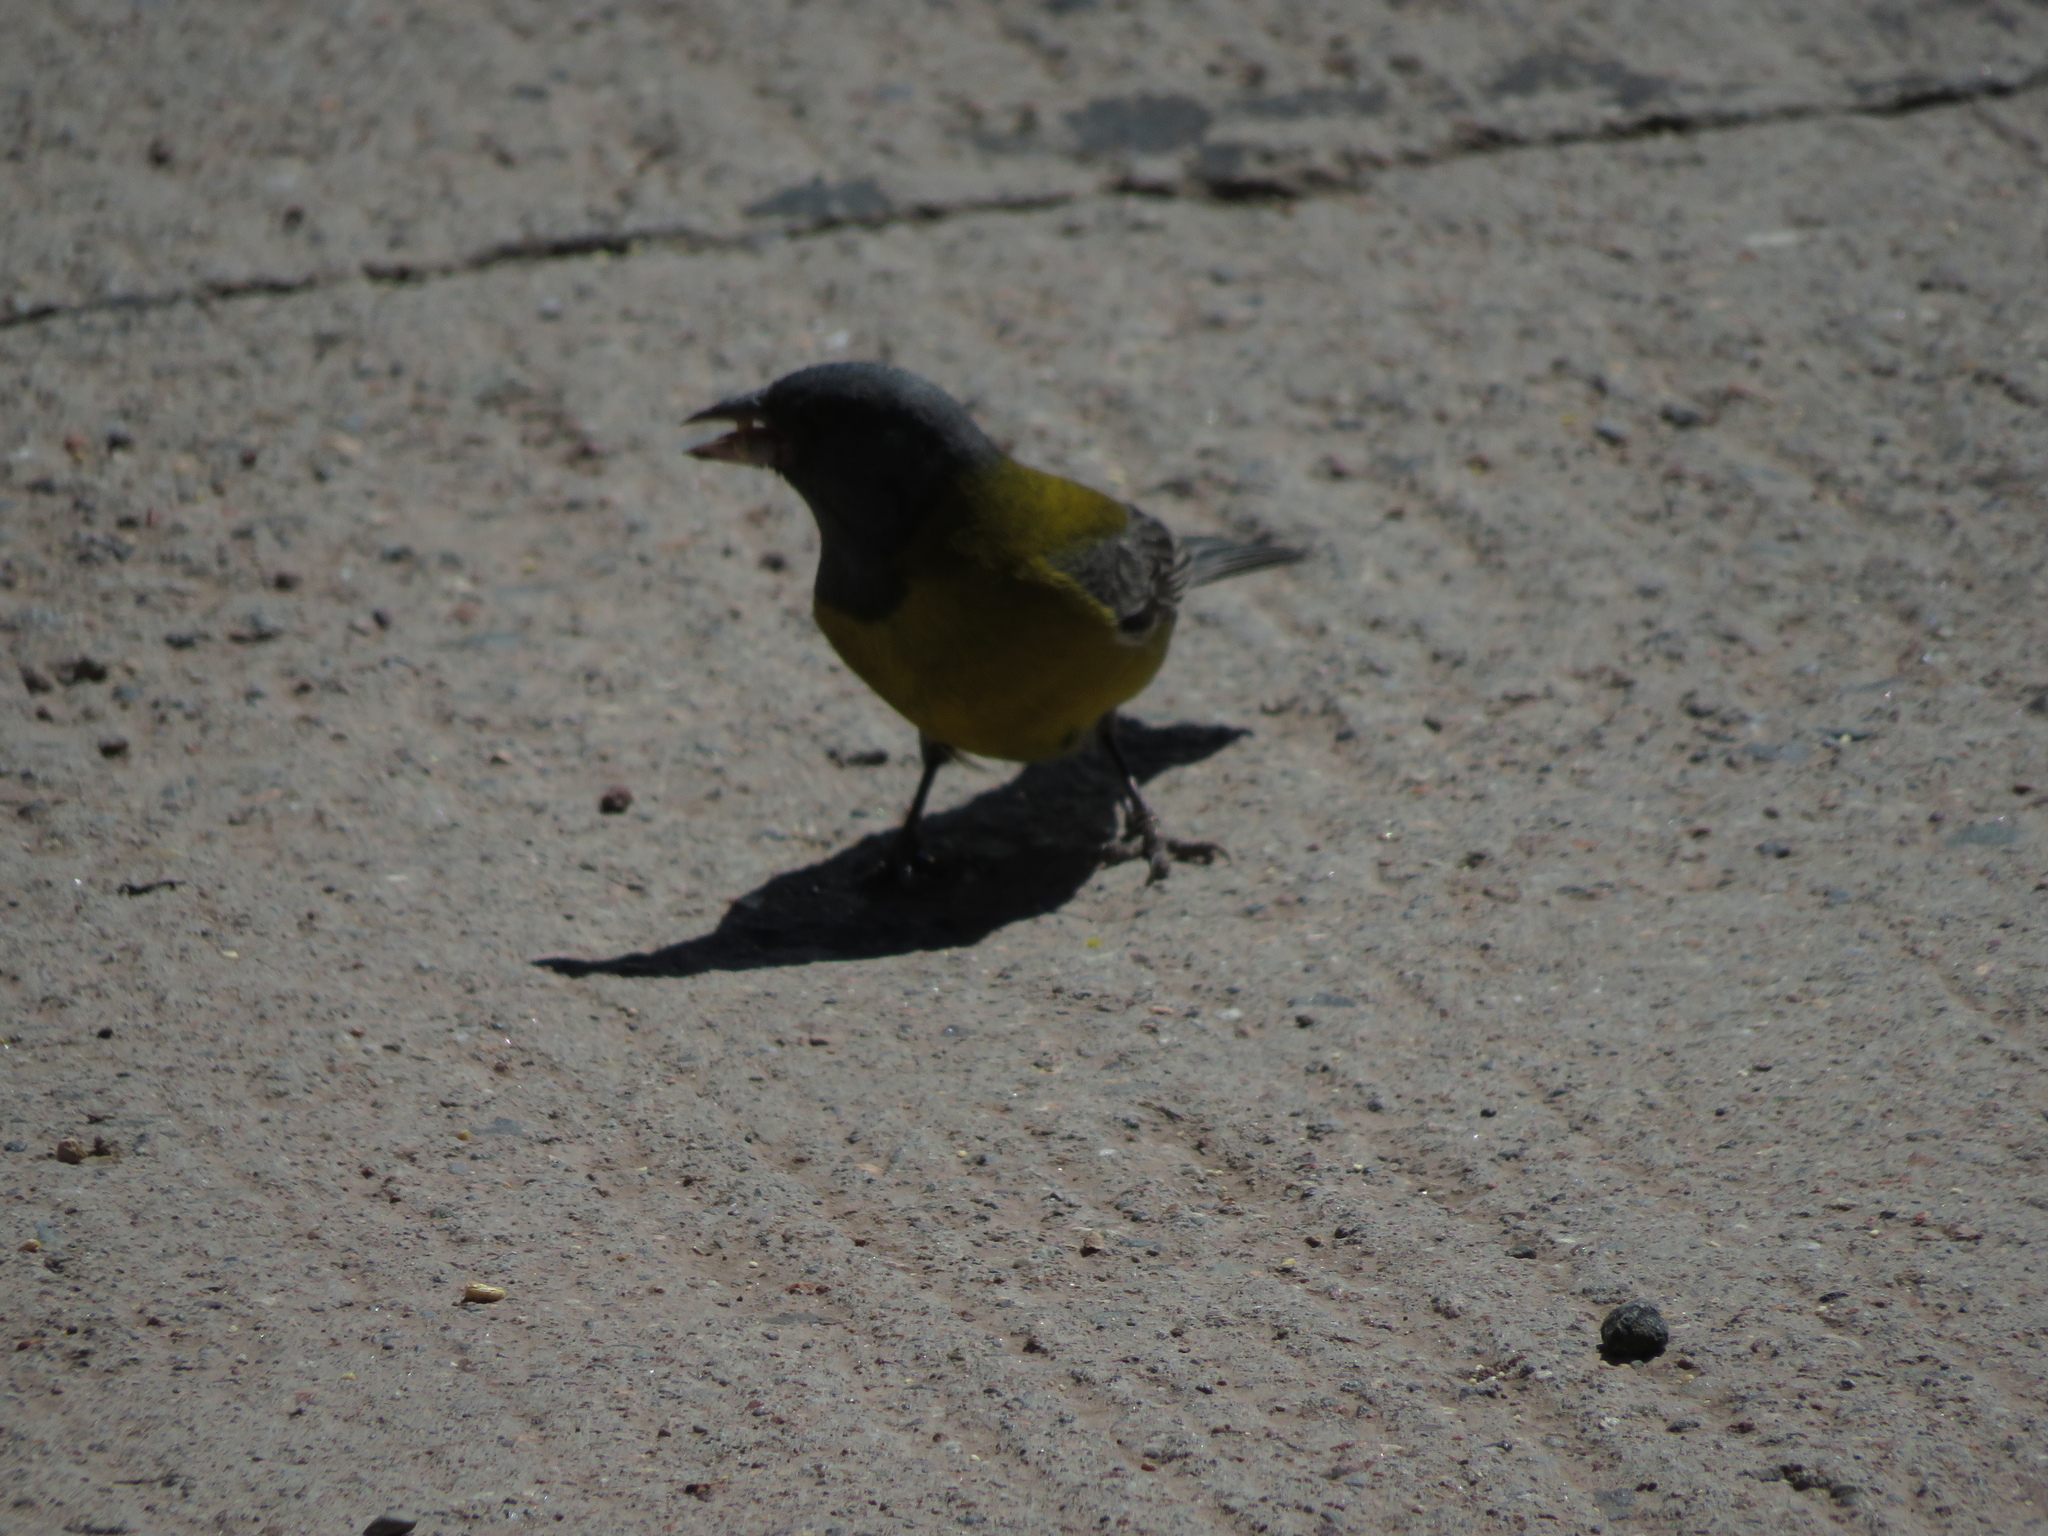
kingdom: Animalia
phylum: Chordata
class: Aves
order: Passeriformes
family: Thraupidae
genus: Phrygilus
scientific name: Phrygilus gayi
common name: Grey-hooded sierra finch
